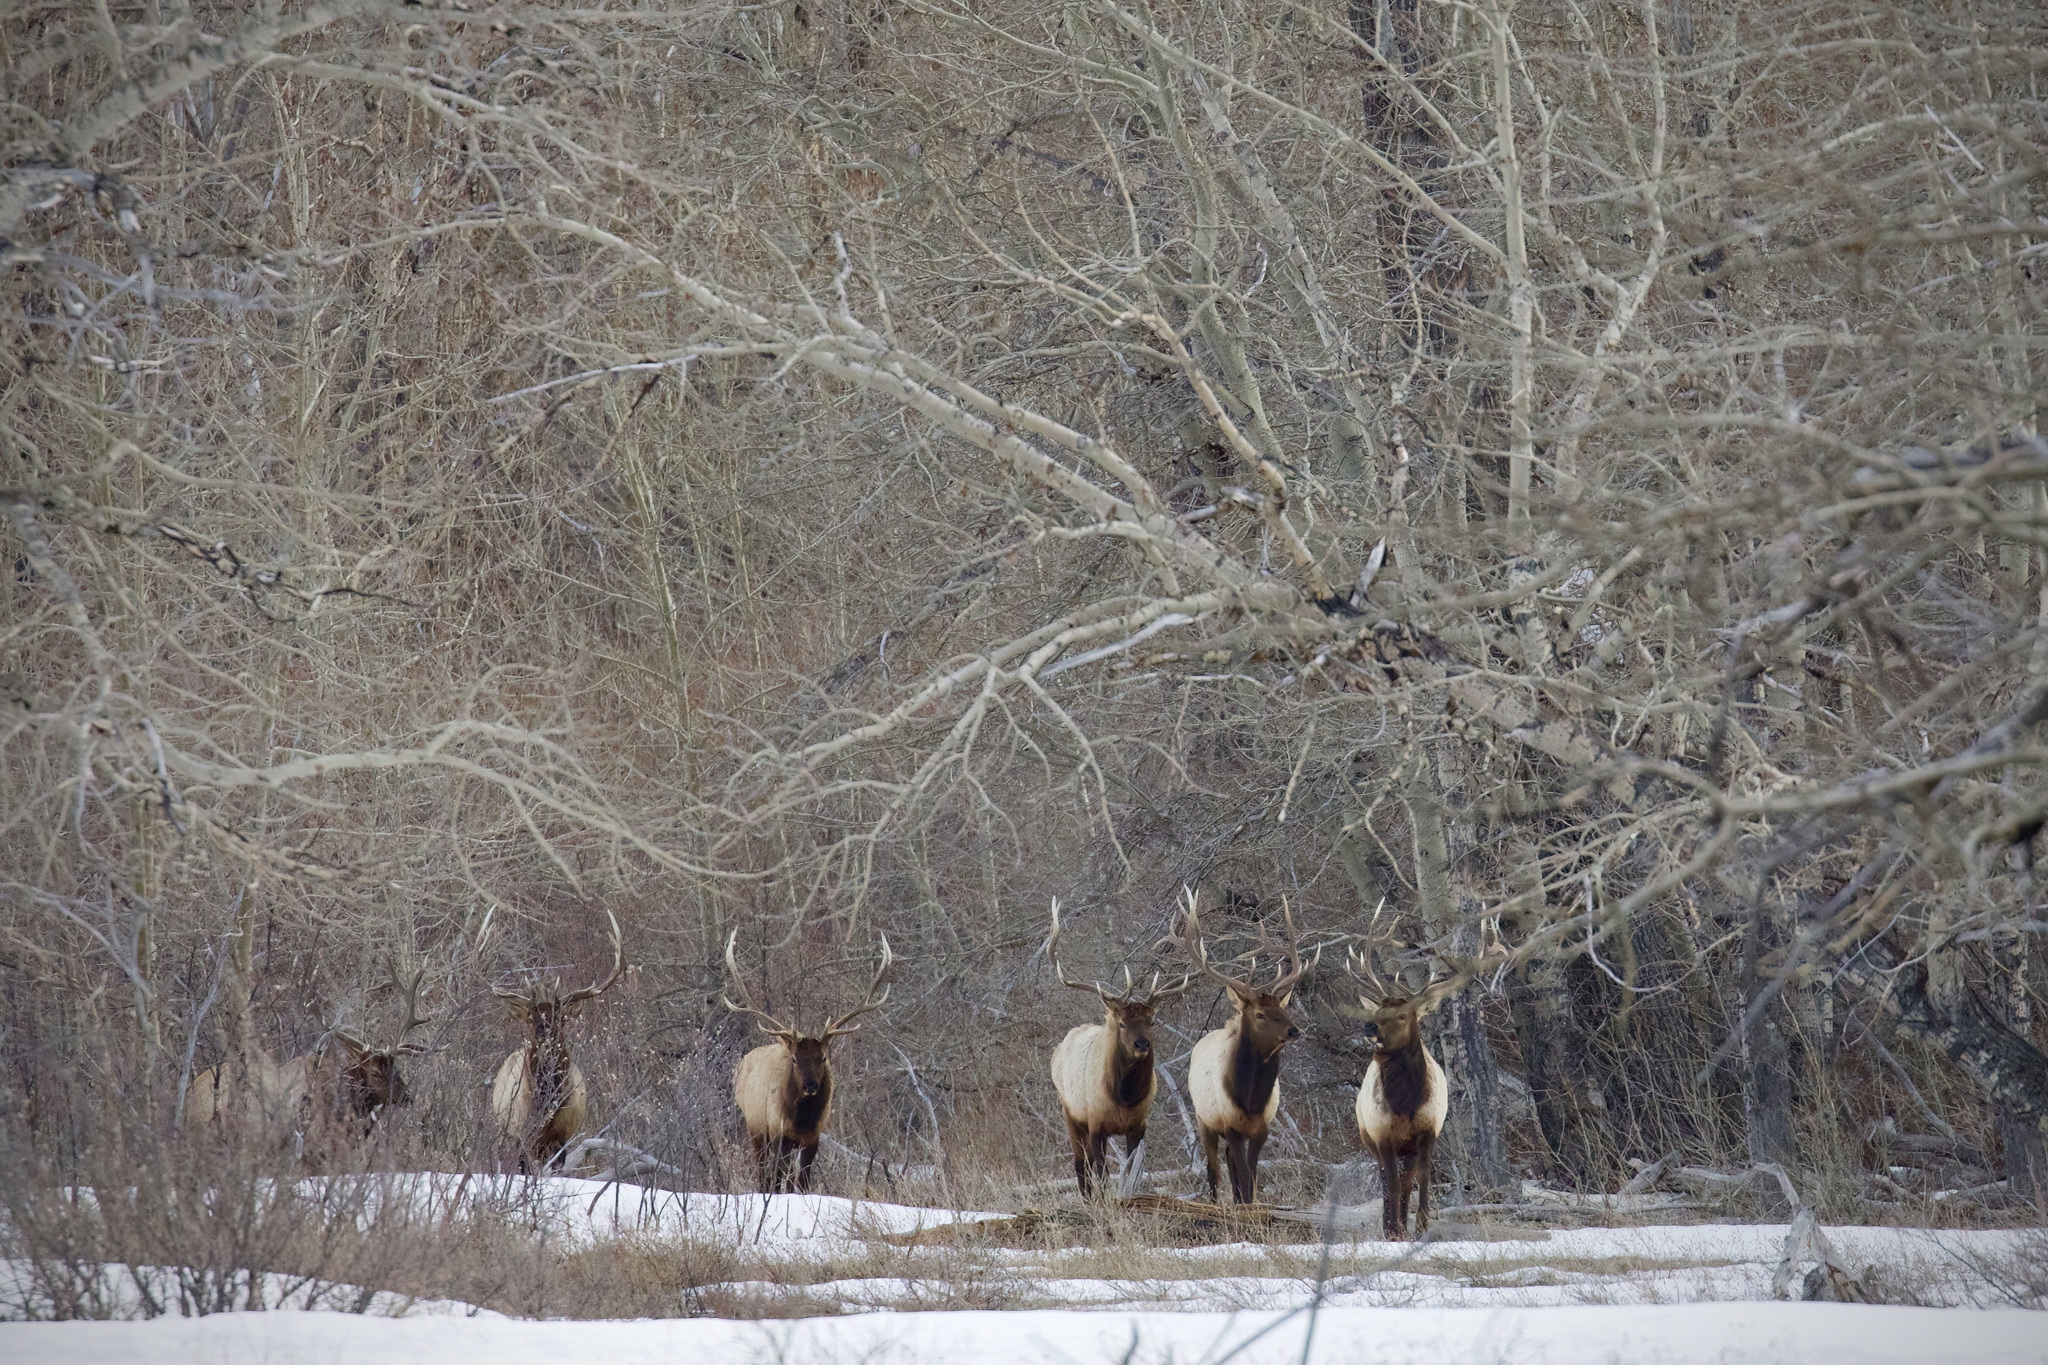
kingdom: Animalia
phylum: Chordata
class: Mammalia
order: Artiodactyla
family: Cervidae
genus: Cervus
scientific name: Cervus elaphus
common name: Red deer
